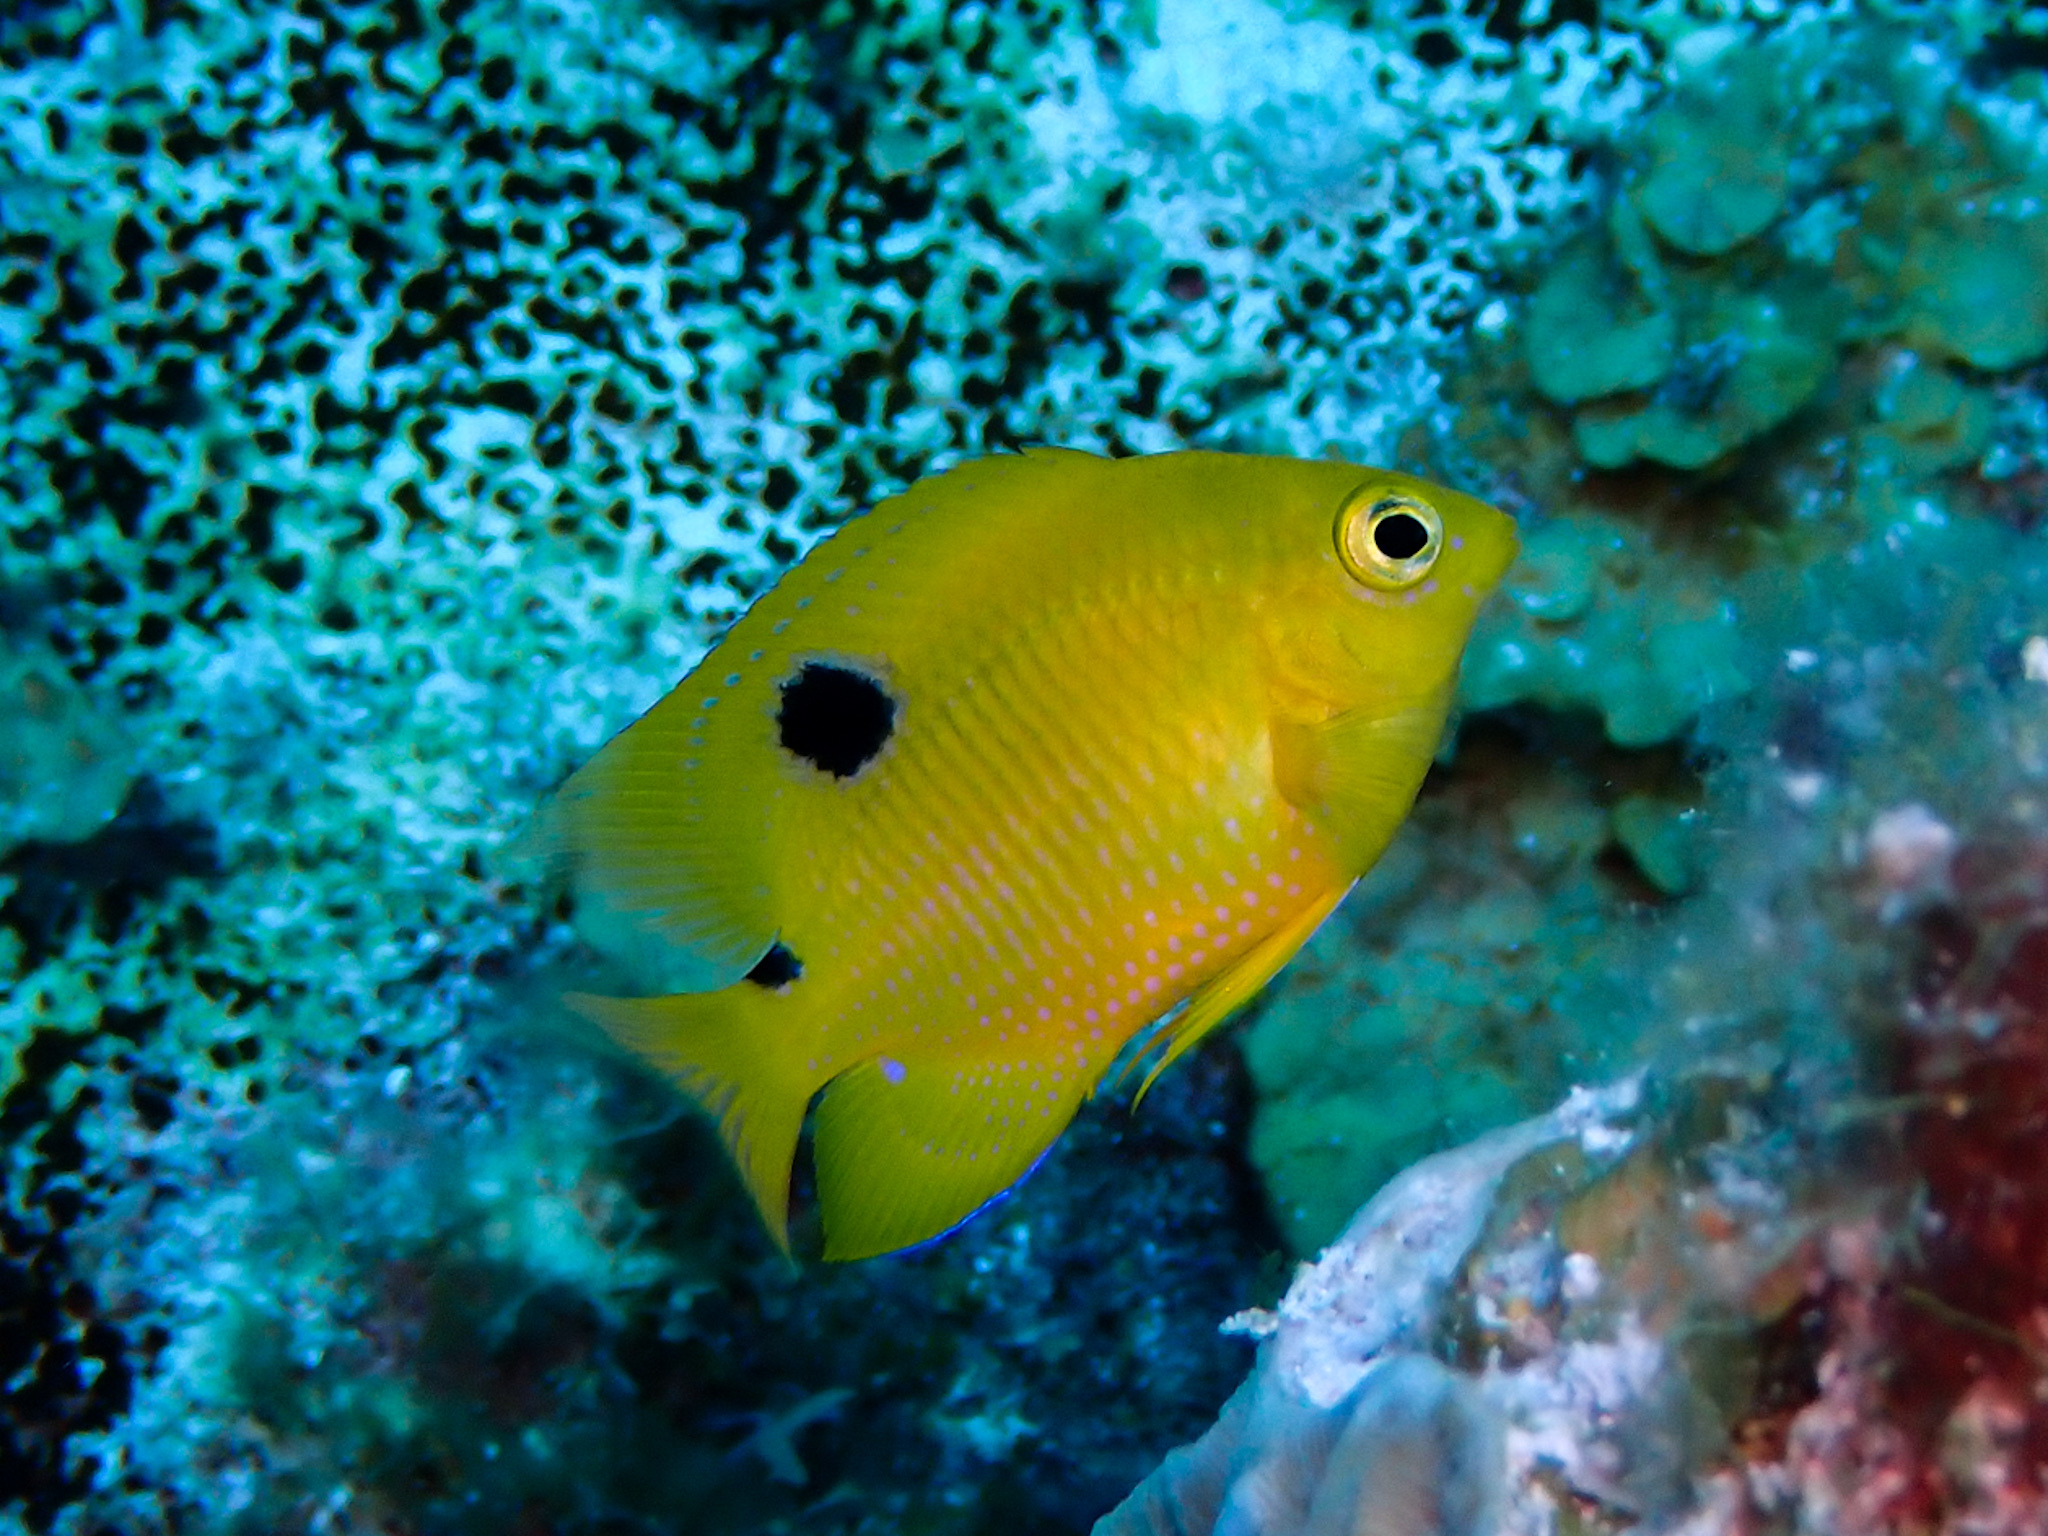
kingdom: Animalia
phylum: Chordata
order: Perciformes
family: Pomacentridae
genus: Stegastes
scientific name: Stegastes planifrons
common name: Threespot damselfish
